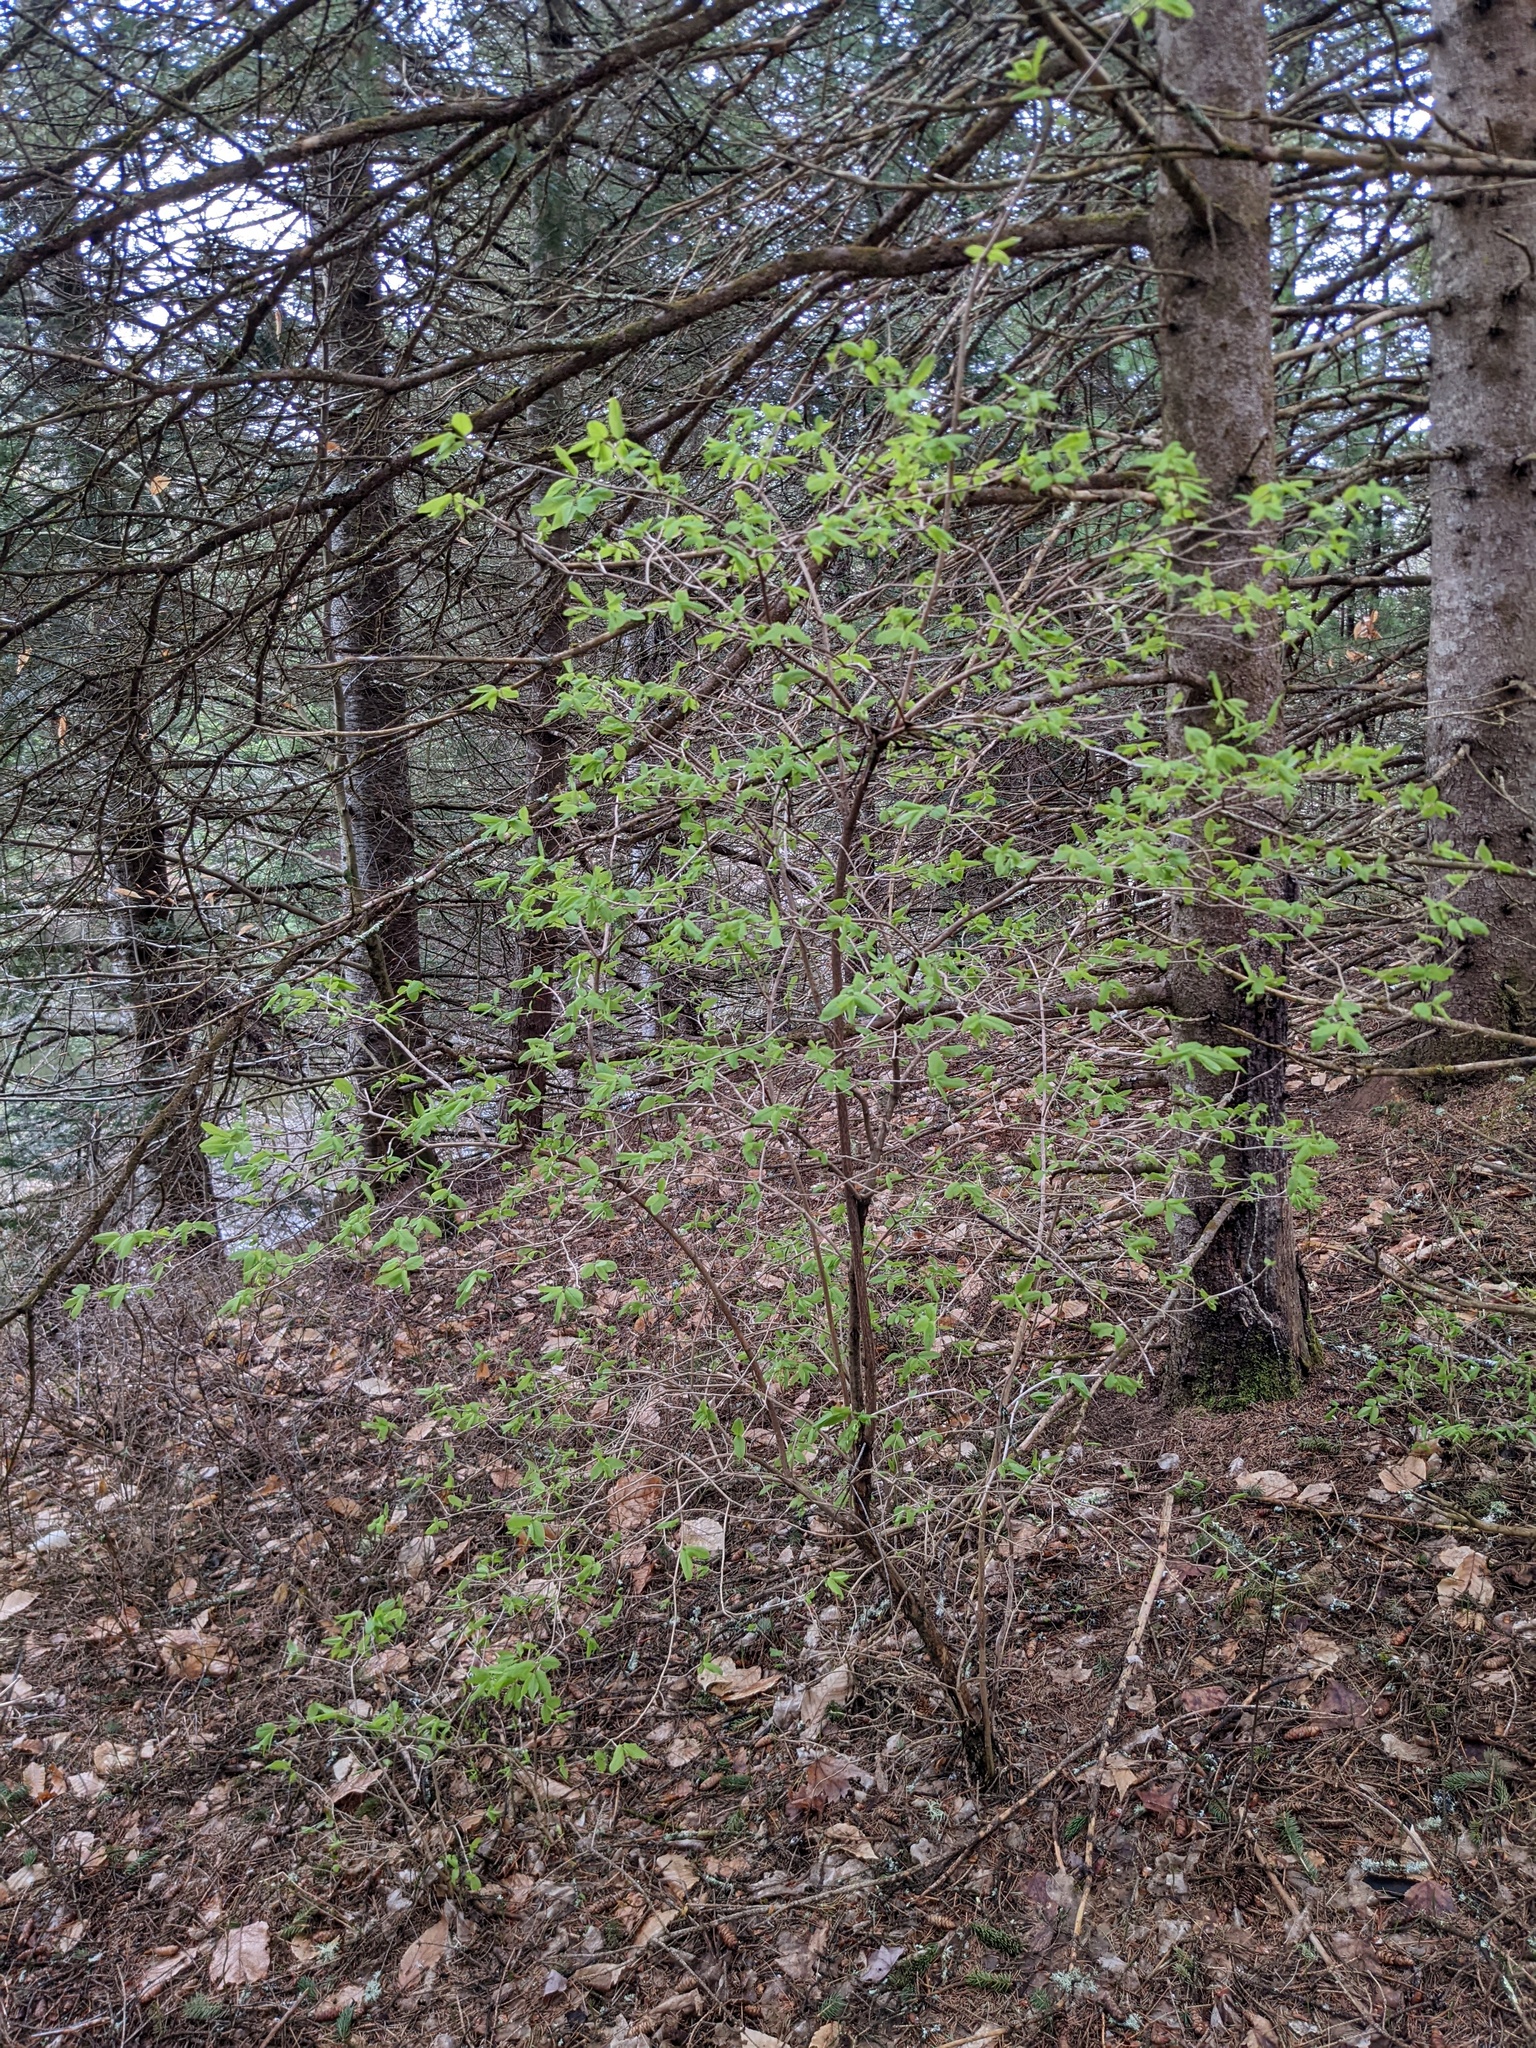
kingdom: Plantae
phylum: Tracheophyta
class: Magnoliopsida
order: Dipsacales
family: Caprifoliaceae
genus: Lonicera
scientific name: Lonicera canadensis
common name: American fly-honeysuckle
